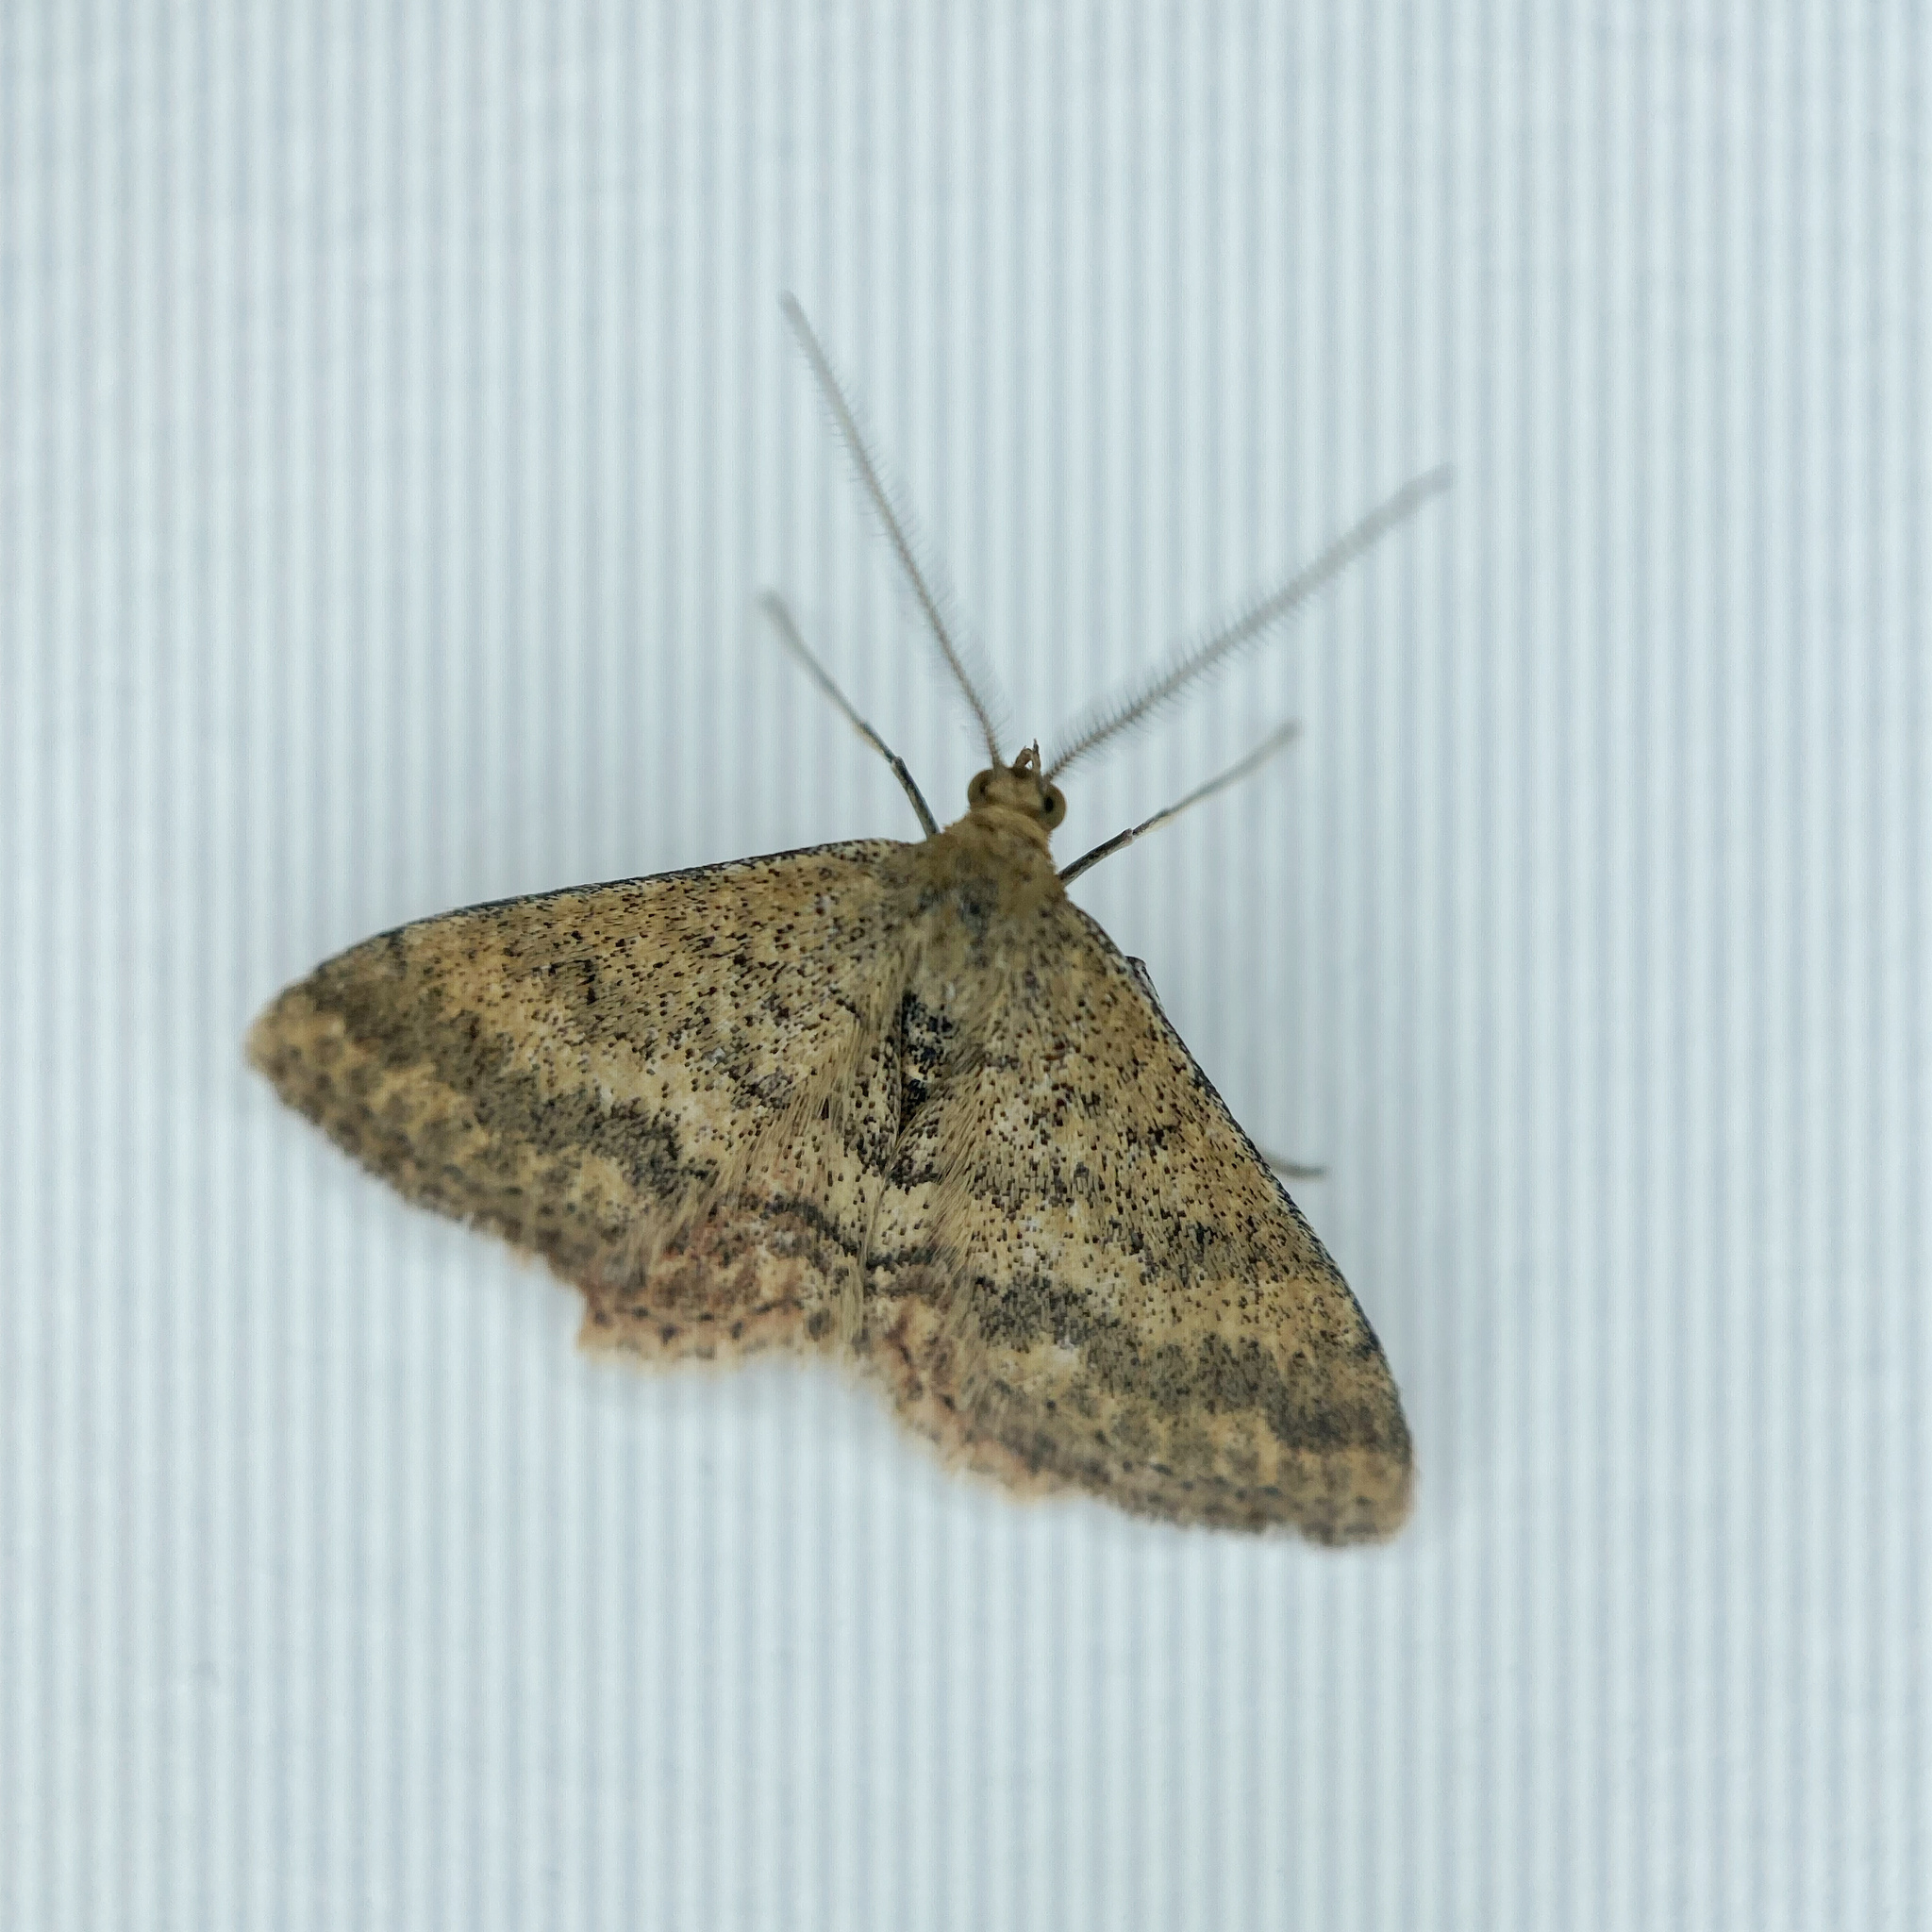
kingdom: Animalia
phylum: Arthropoda
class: Insecta
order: Lepidoptera
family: Geometridae
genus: Scopula
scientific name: Scopula rubraria
